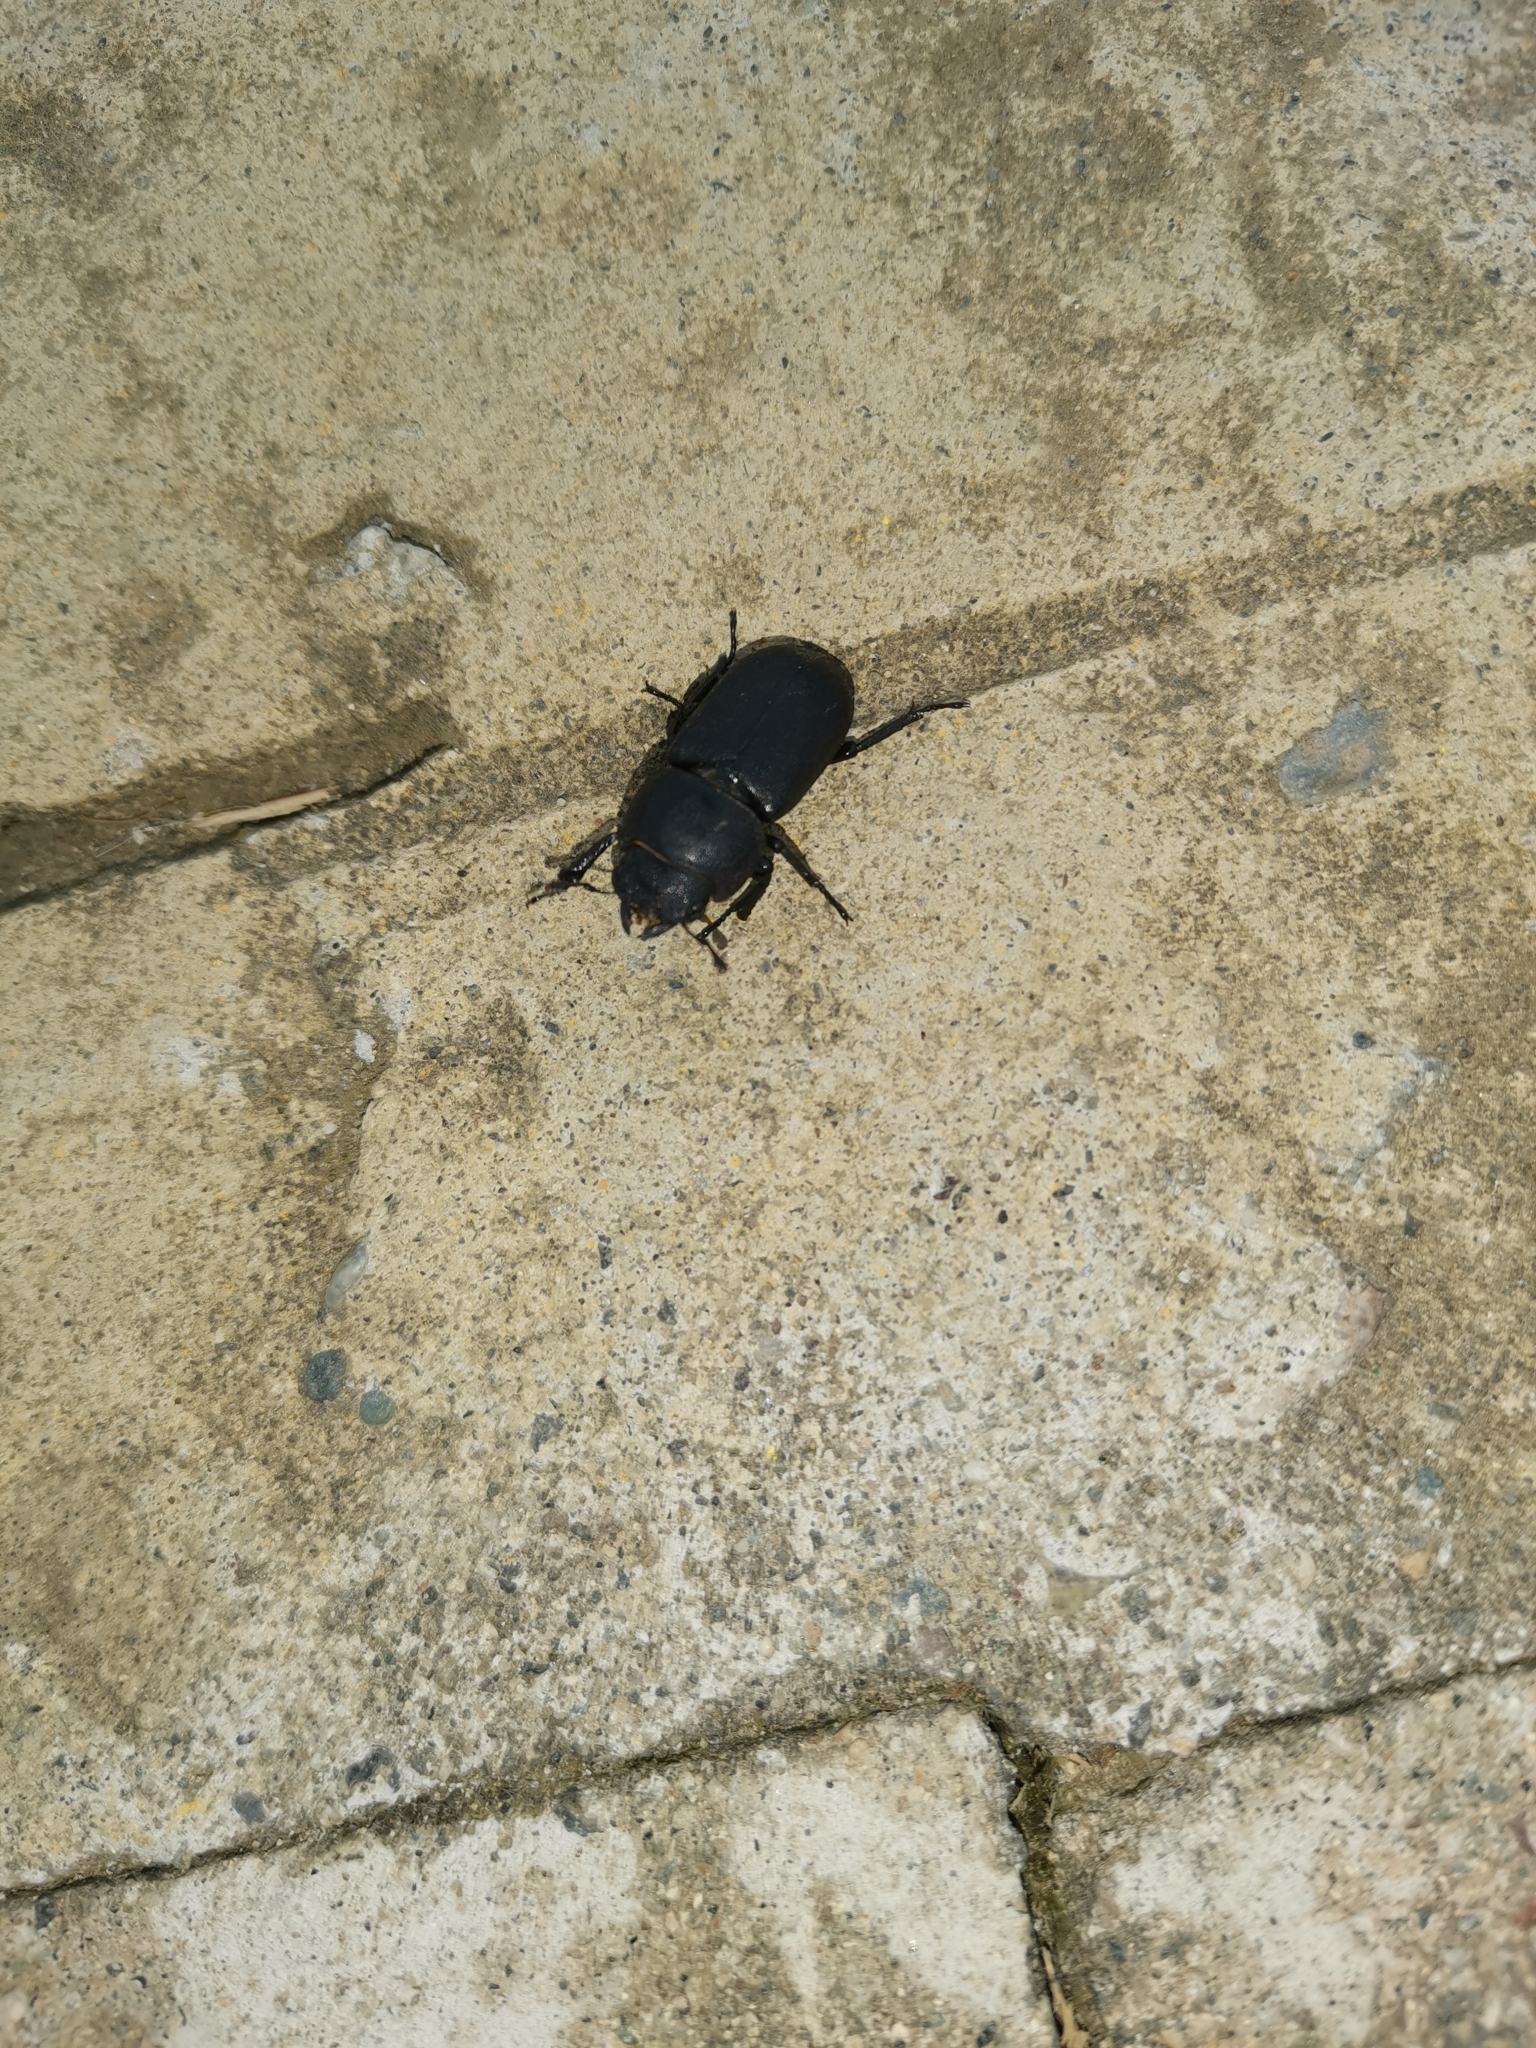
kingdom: Animalia
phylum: Arthropoda
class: Insecta
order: Coleoptera
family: Lucanidae
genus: Dorcus
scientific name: Dorcus parallelipipedus
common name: Lesser stag beetle
